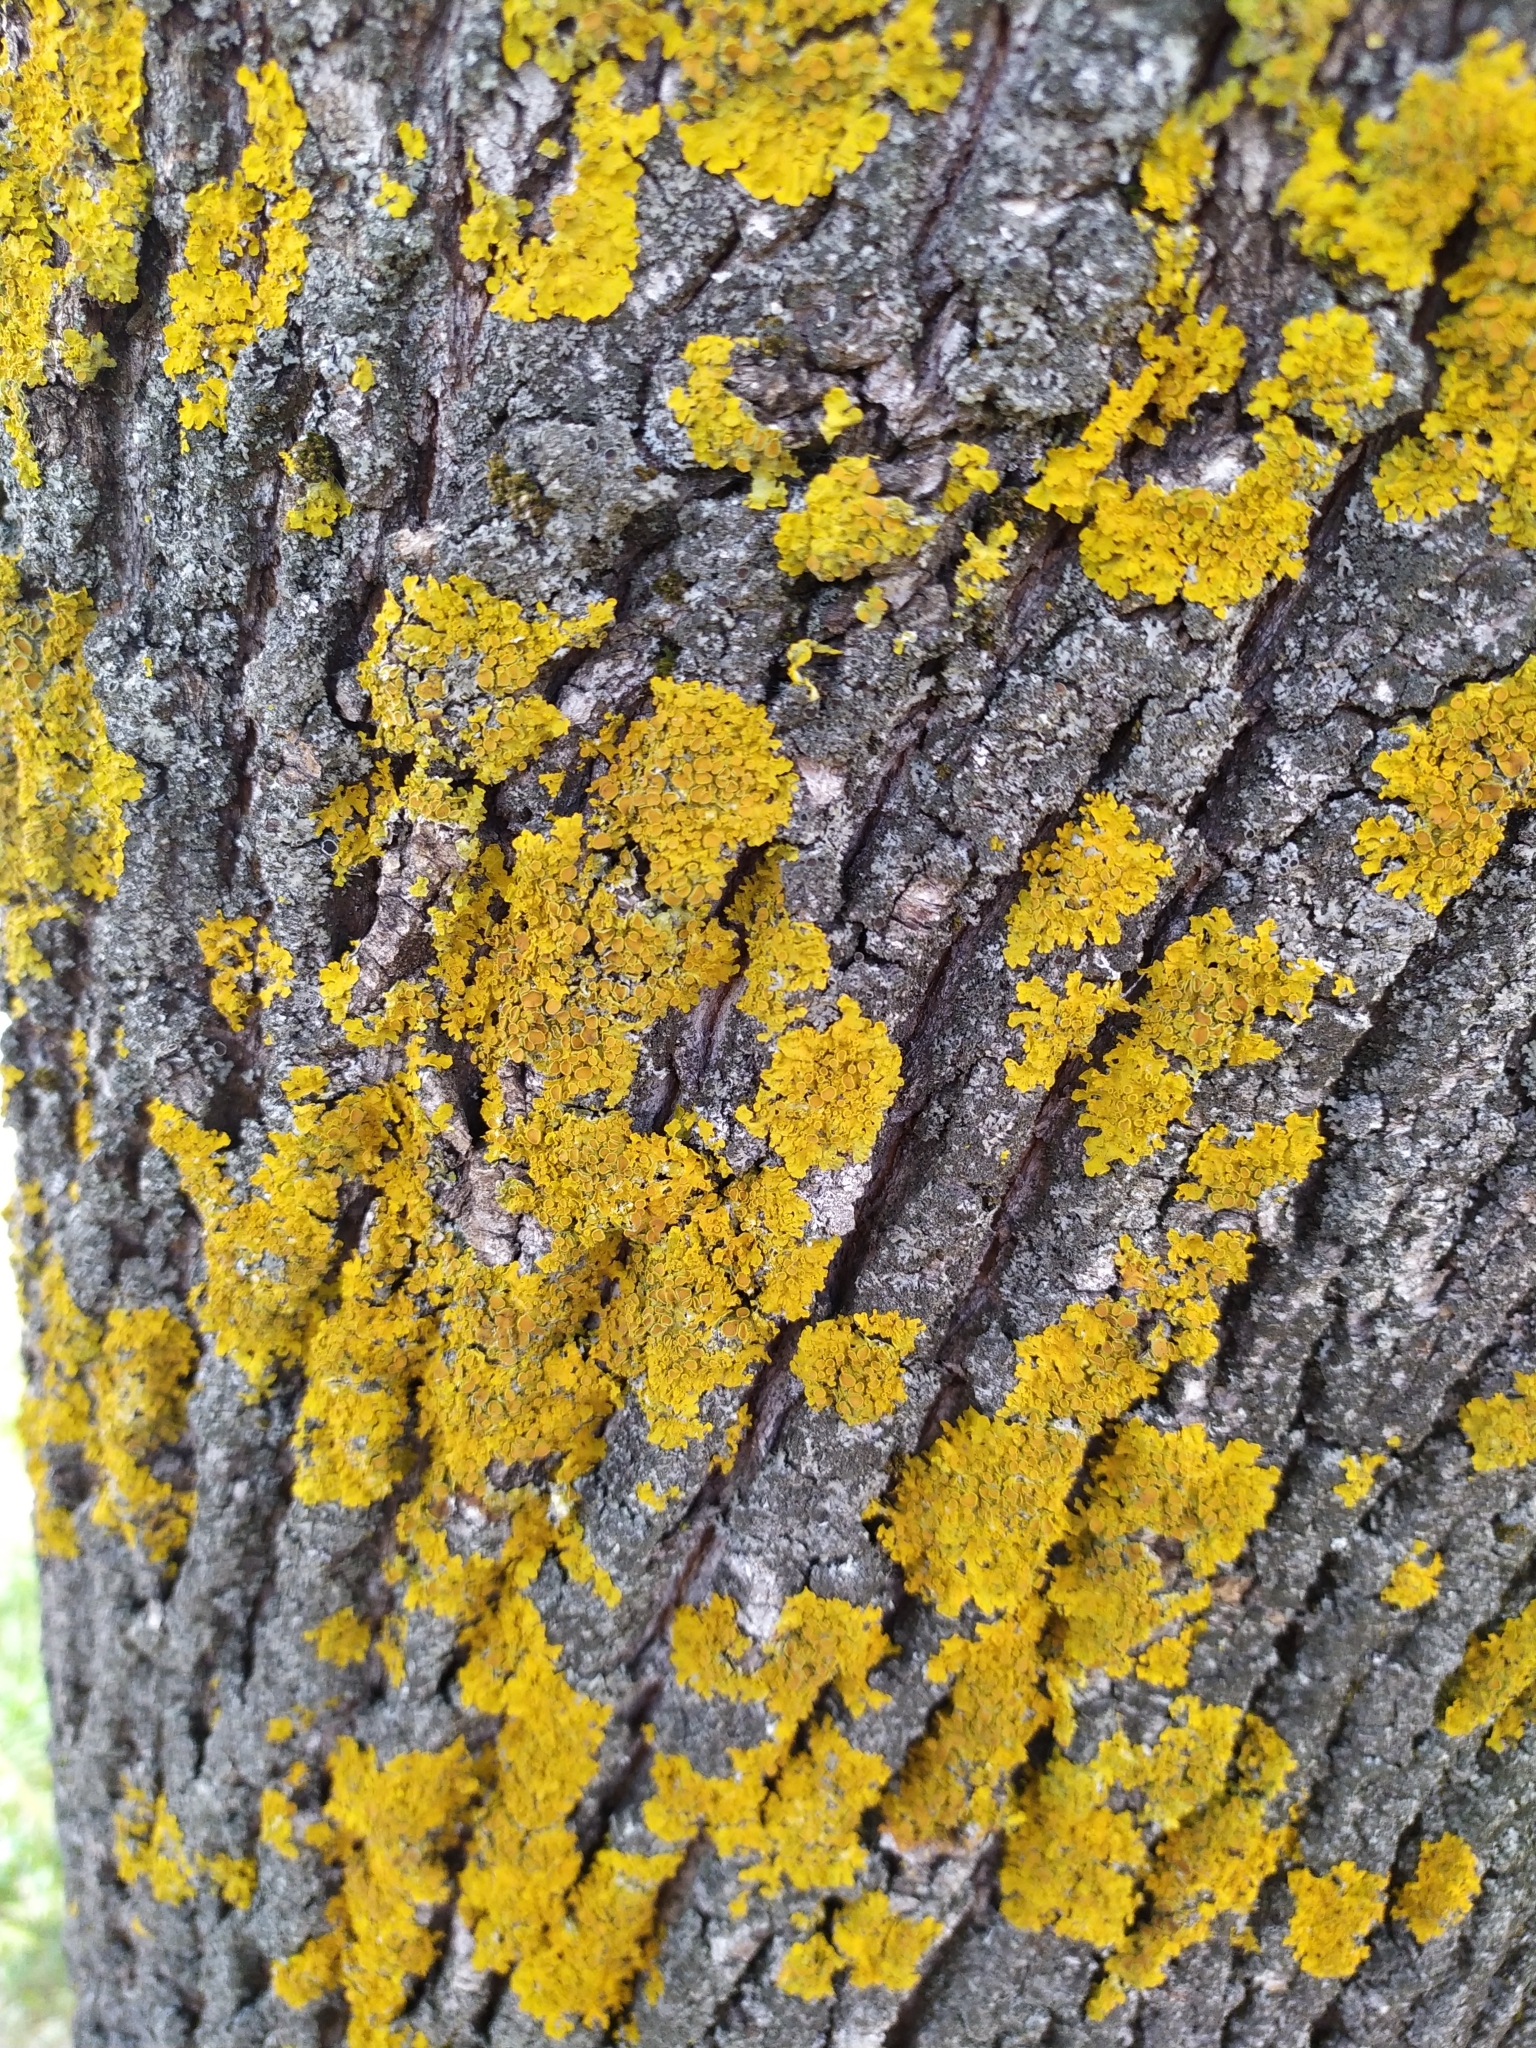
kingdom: Fungi
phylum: Ascomycota
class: Lecanoromycetes
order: Teloschistales
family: Teloschistaceae
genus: Xanthoria
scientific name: Xanthoria parietina
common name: Common orange lichen
